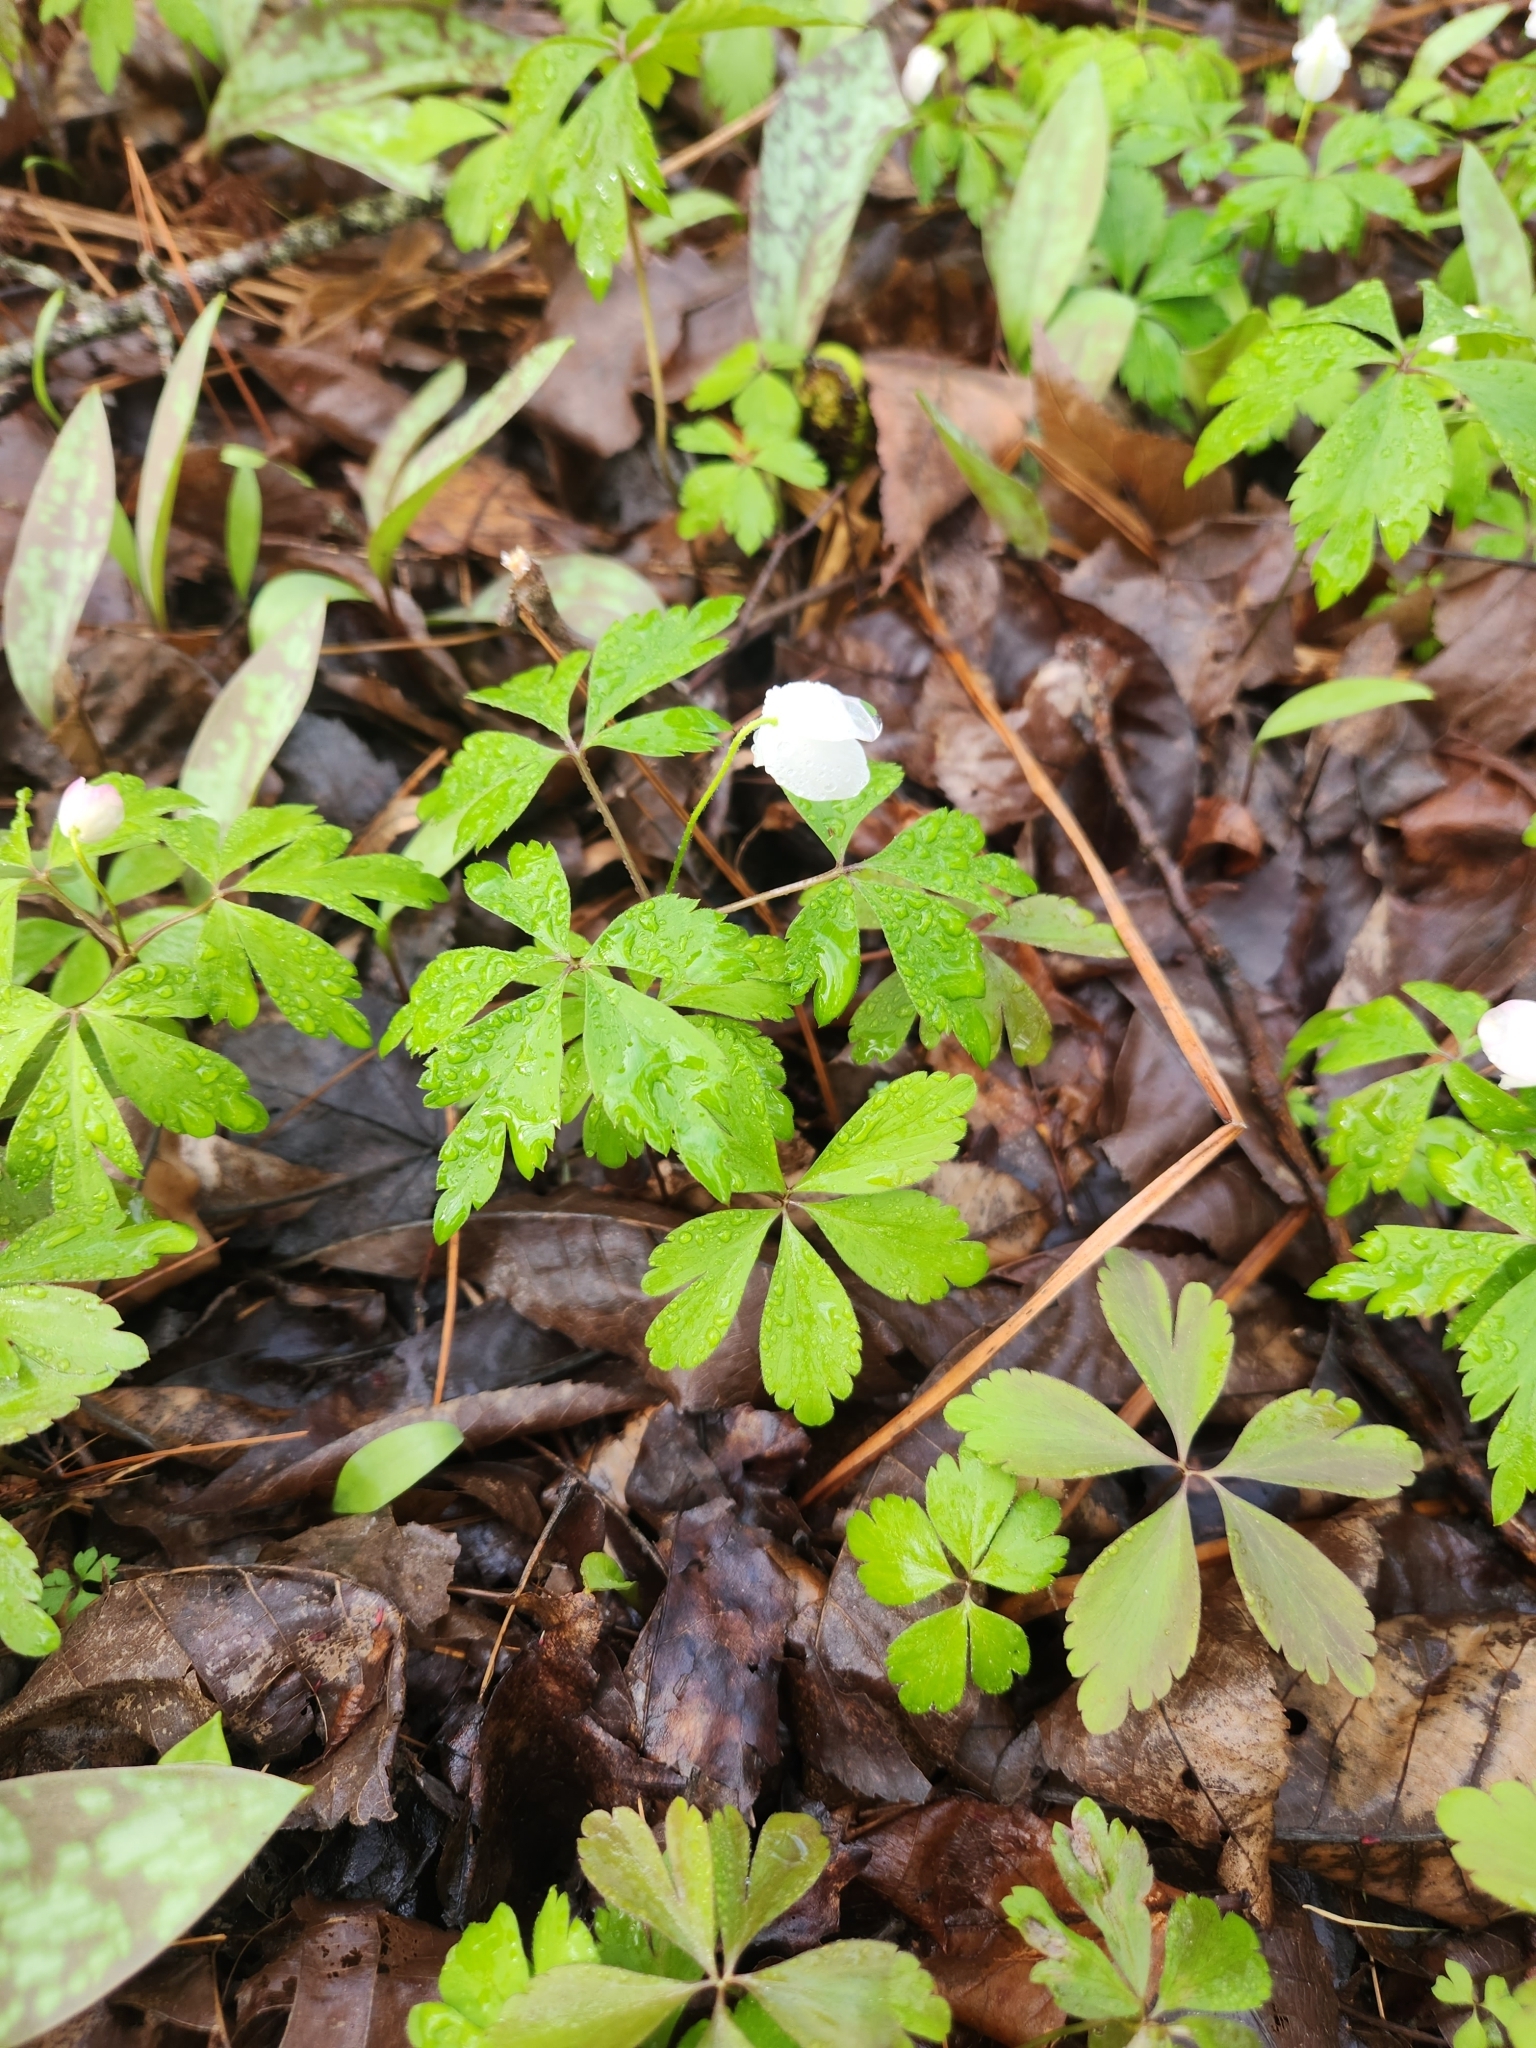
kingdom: Plantae
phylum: Tracheophyta
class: Magnoliopsida
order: Ranunculales
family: Ranunculaceae
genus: Anemone
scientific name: Anemone quinquefolia
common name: Wood anemone
